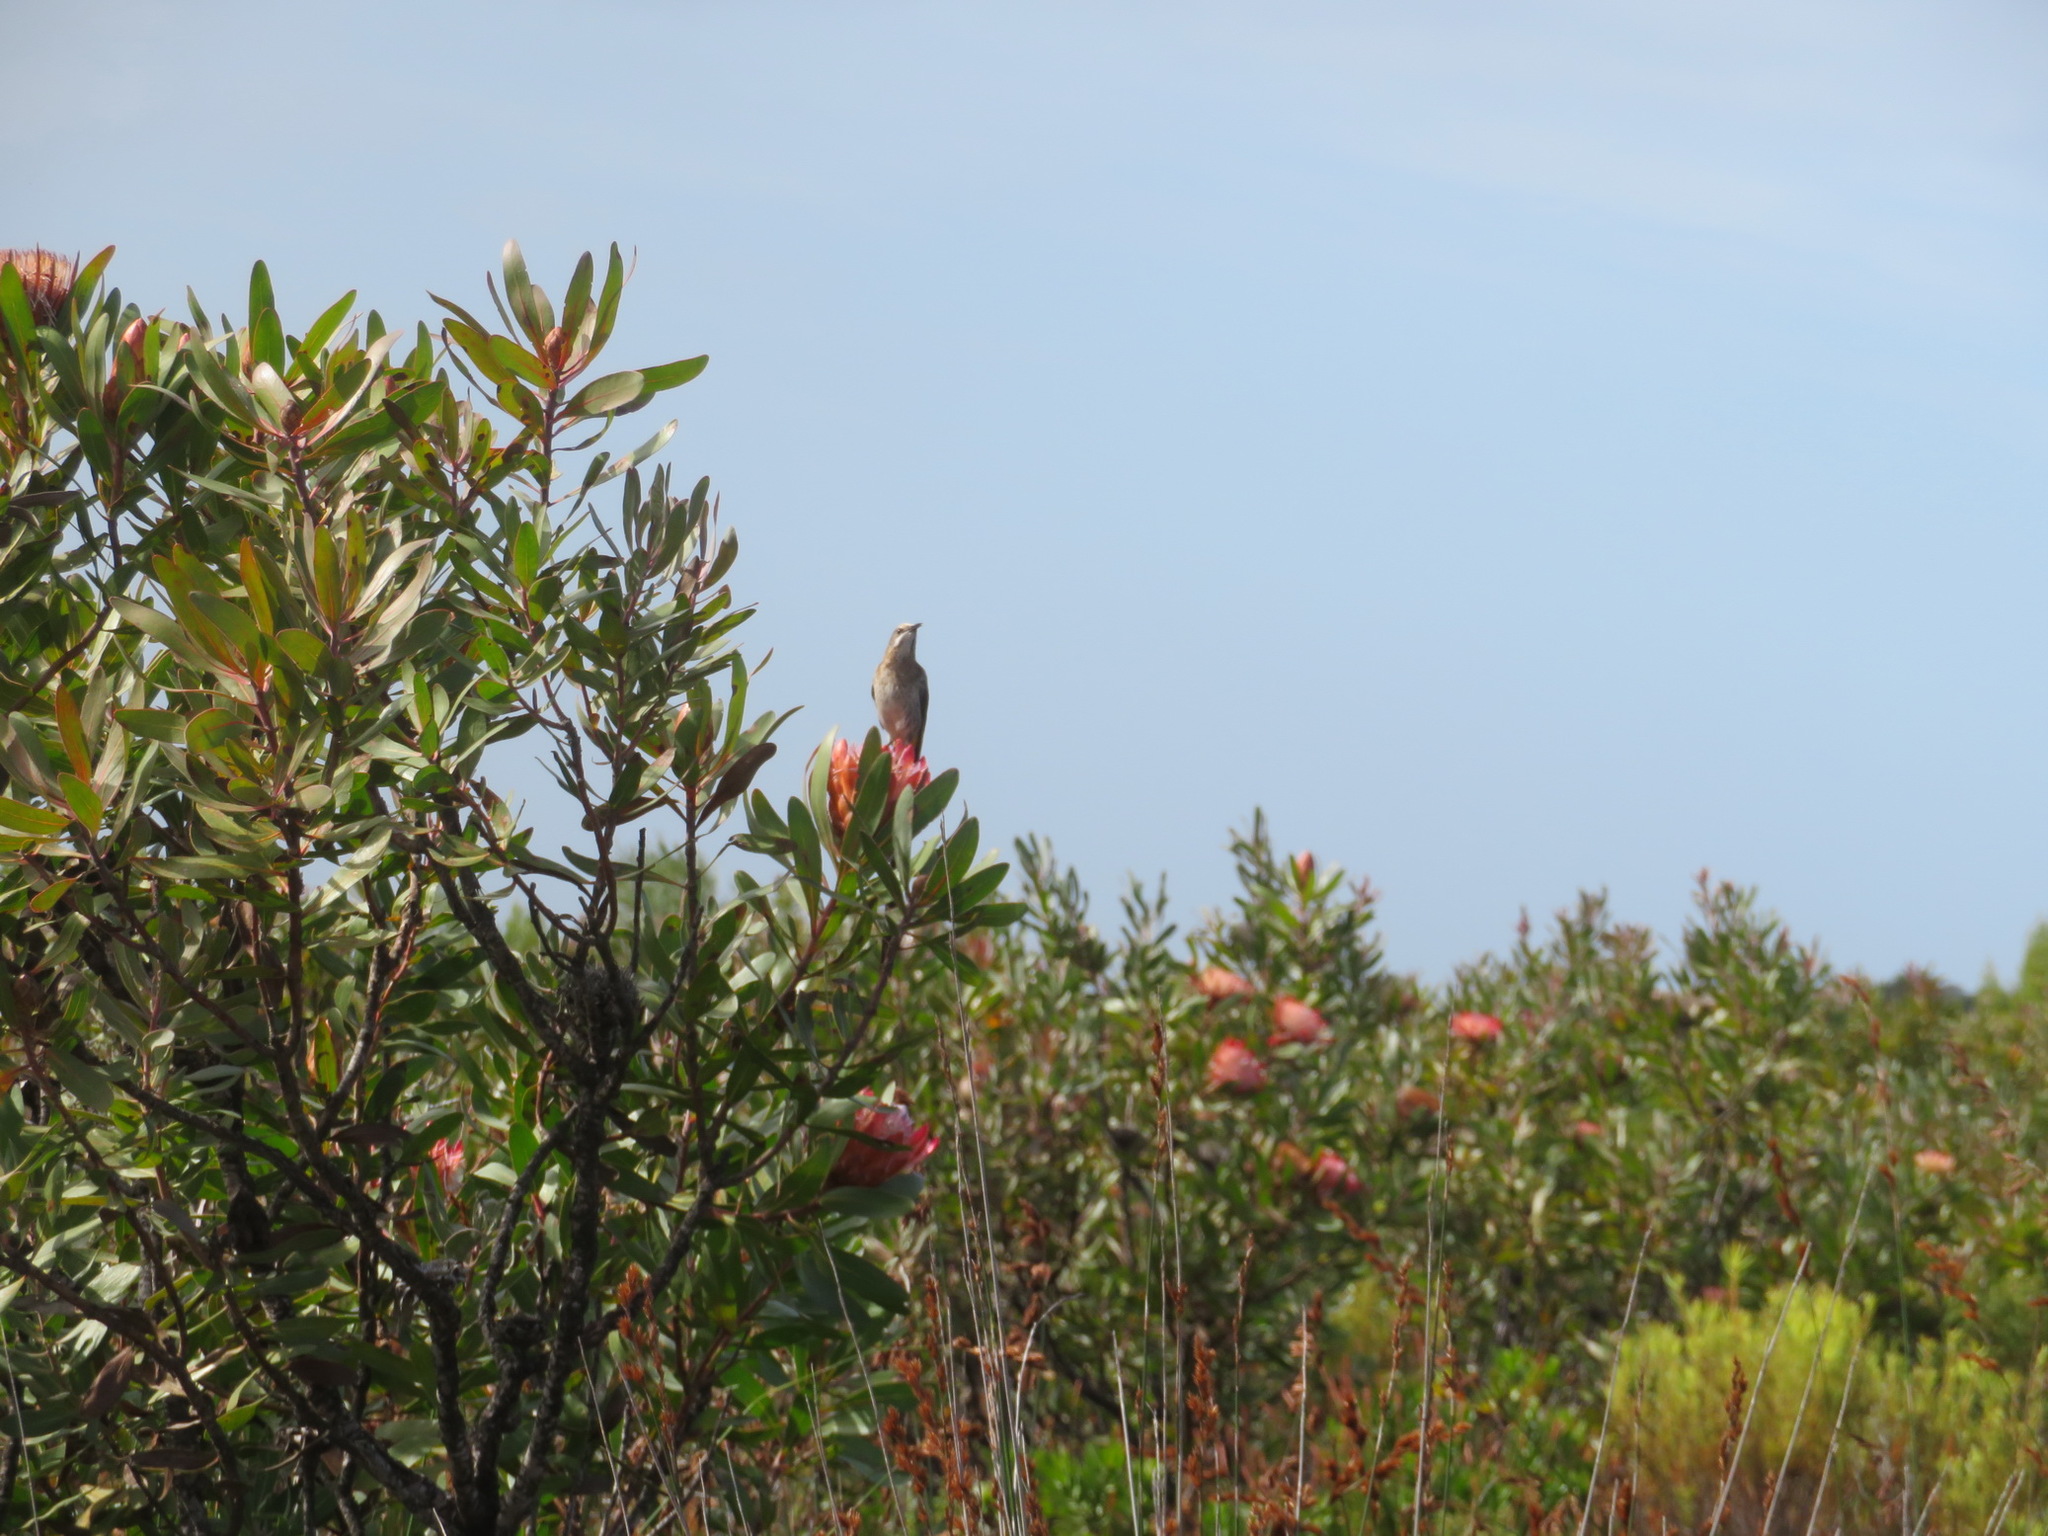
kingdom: Plantae
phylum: Tracheophyta
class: Magnoliopsida
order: Proteales
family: Proteaceae
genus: Protea
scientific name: Protea susannae
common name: Foetid-leaf sugarbush
